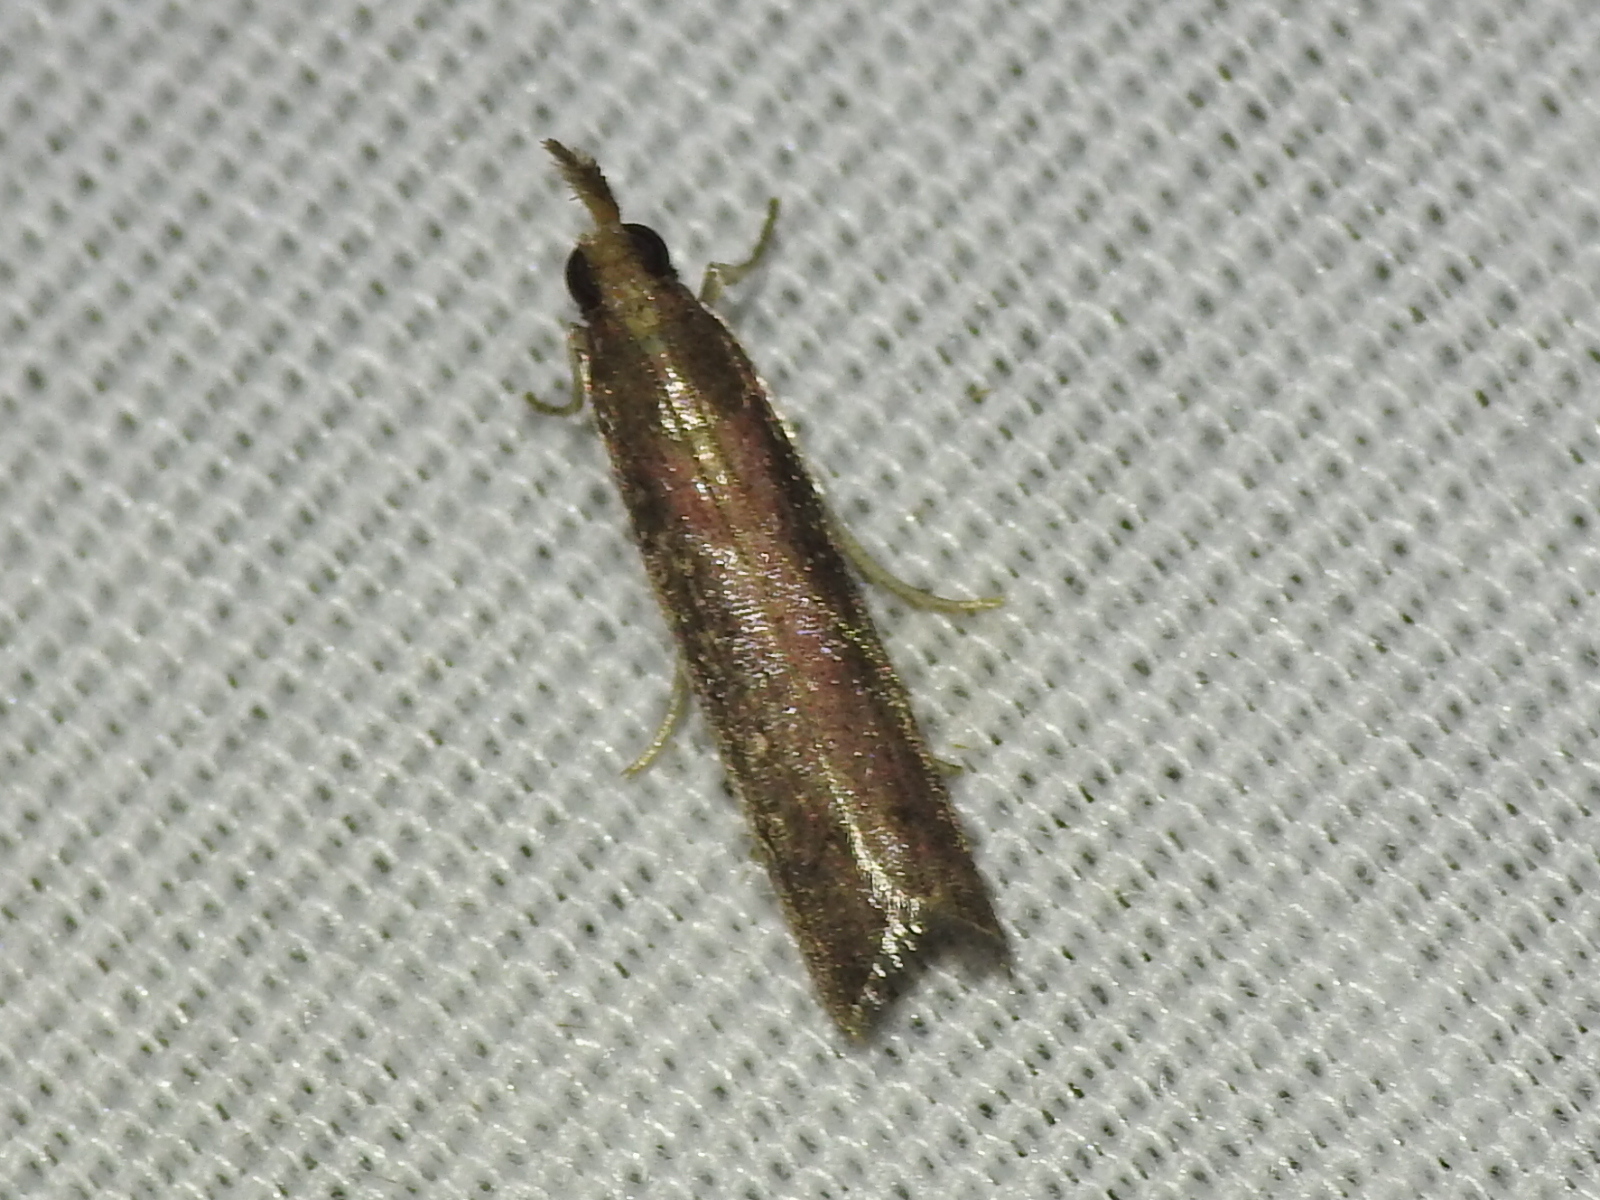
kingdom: Animalia
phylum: Arthropoda
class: Insecta
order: Lepidoptera
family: Pyralidae
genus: Atascosa
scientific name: Atascosa glareosella
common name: Rosy atascosa moth
